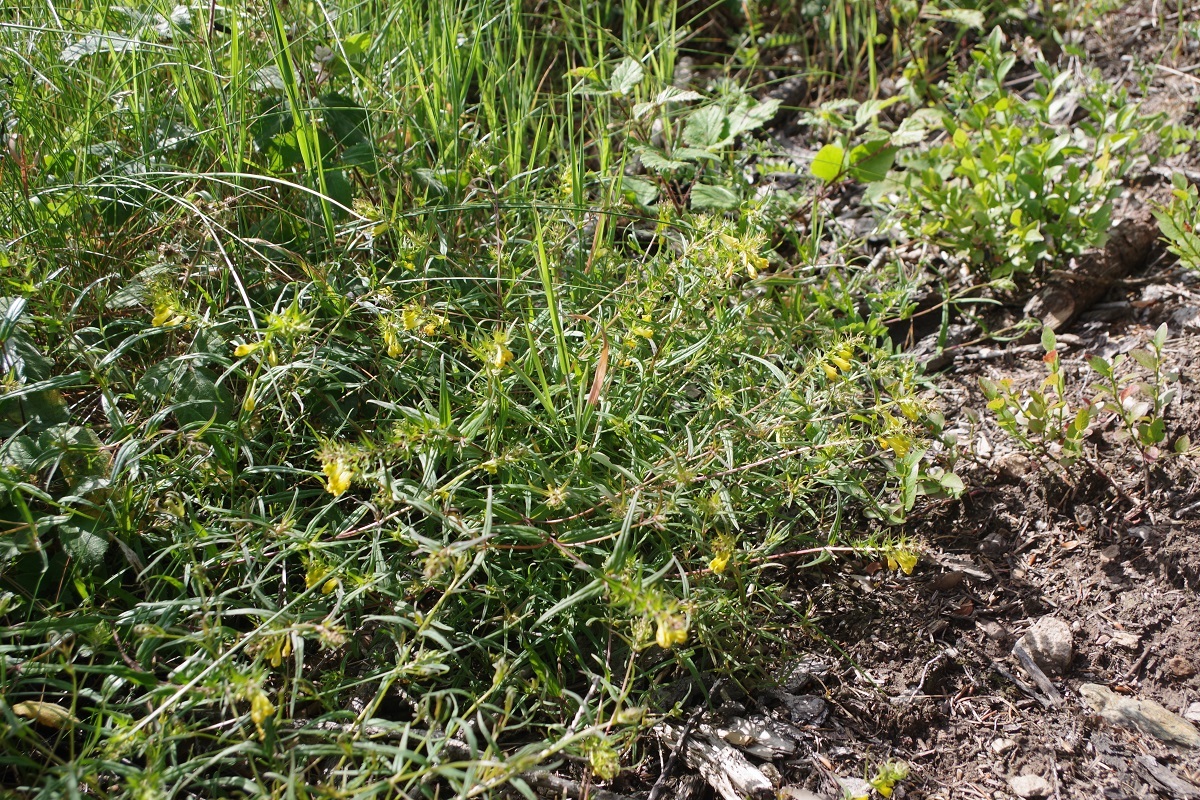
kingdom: Plantae
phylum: Tracheophyta
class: Magnoliopsida
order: Lamiales
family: Orobanchaceae
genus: Melampyrum
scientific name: Melampyrum pratense
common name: Common cow-wheat
